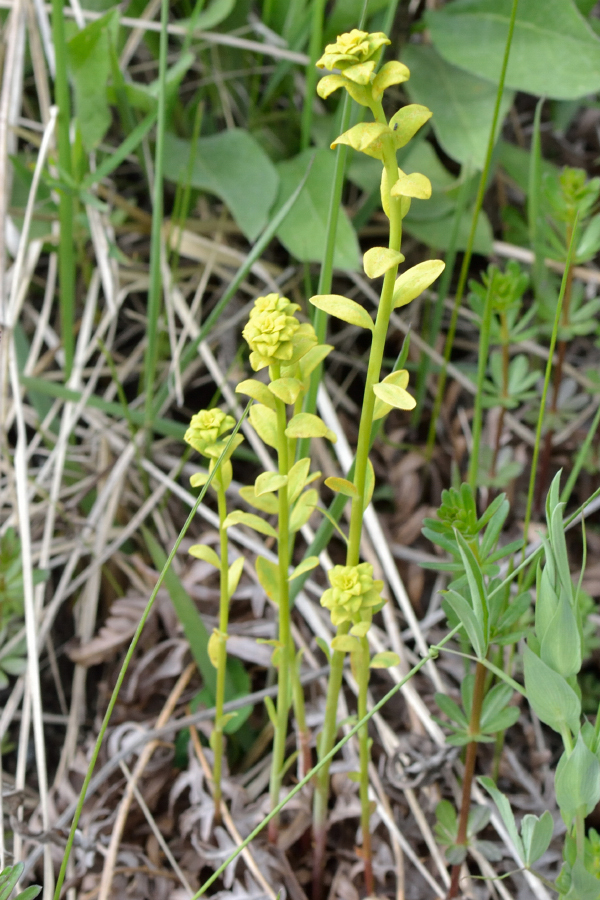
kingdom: Plantae
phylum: Tracheophyta
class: Magnoliopsida
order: Malpighiales
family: Euphorbiaceae
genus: Euphorbia
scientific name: Euphorbia virgata
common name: Leafy spurge
